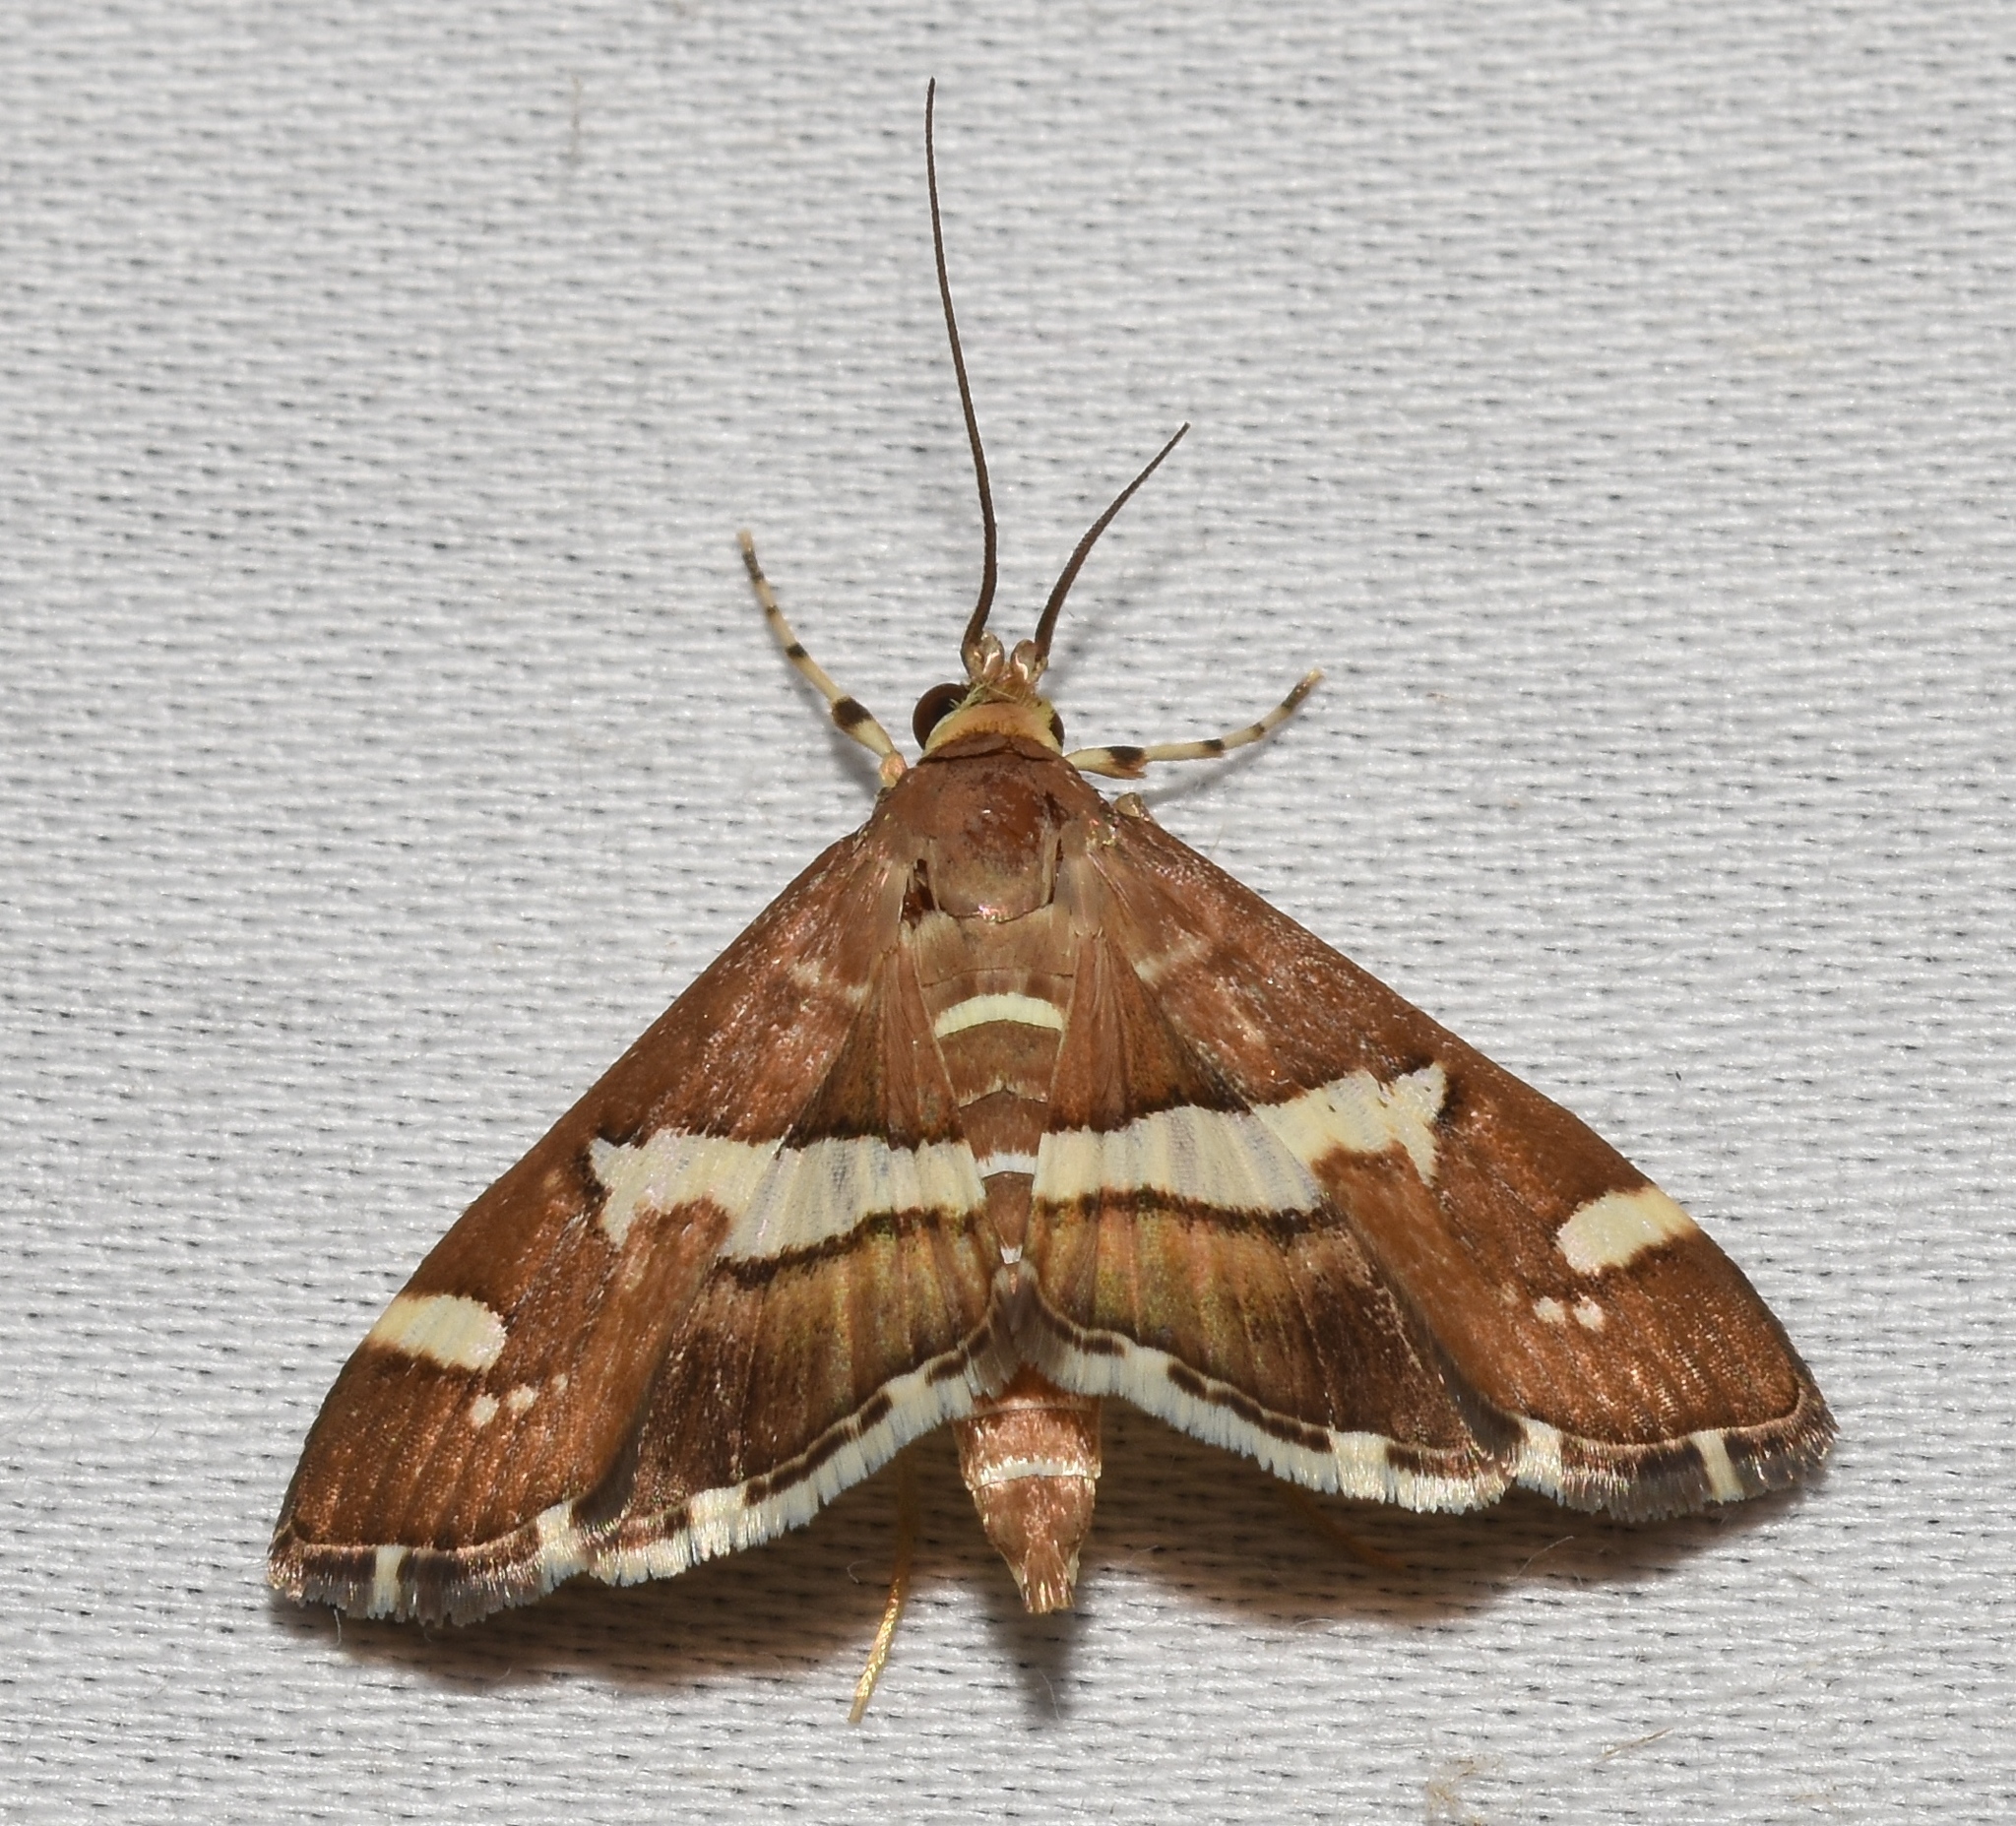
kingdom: Animalia
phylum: Arthropoda
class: Insecta
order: Lepidoptera
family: Crambidae
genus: Spoladea
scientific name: Spoladea recurvalis
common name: Beet webworm moth
